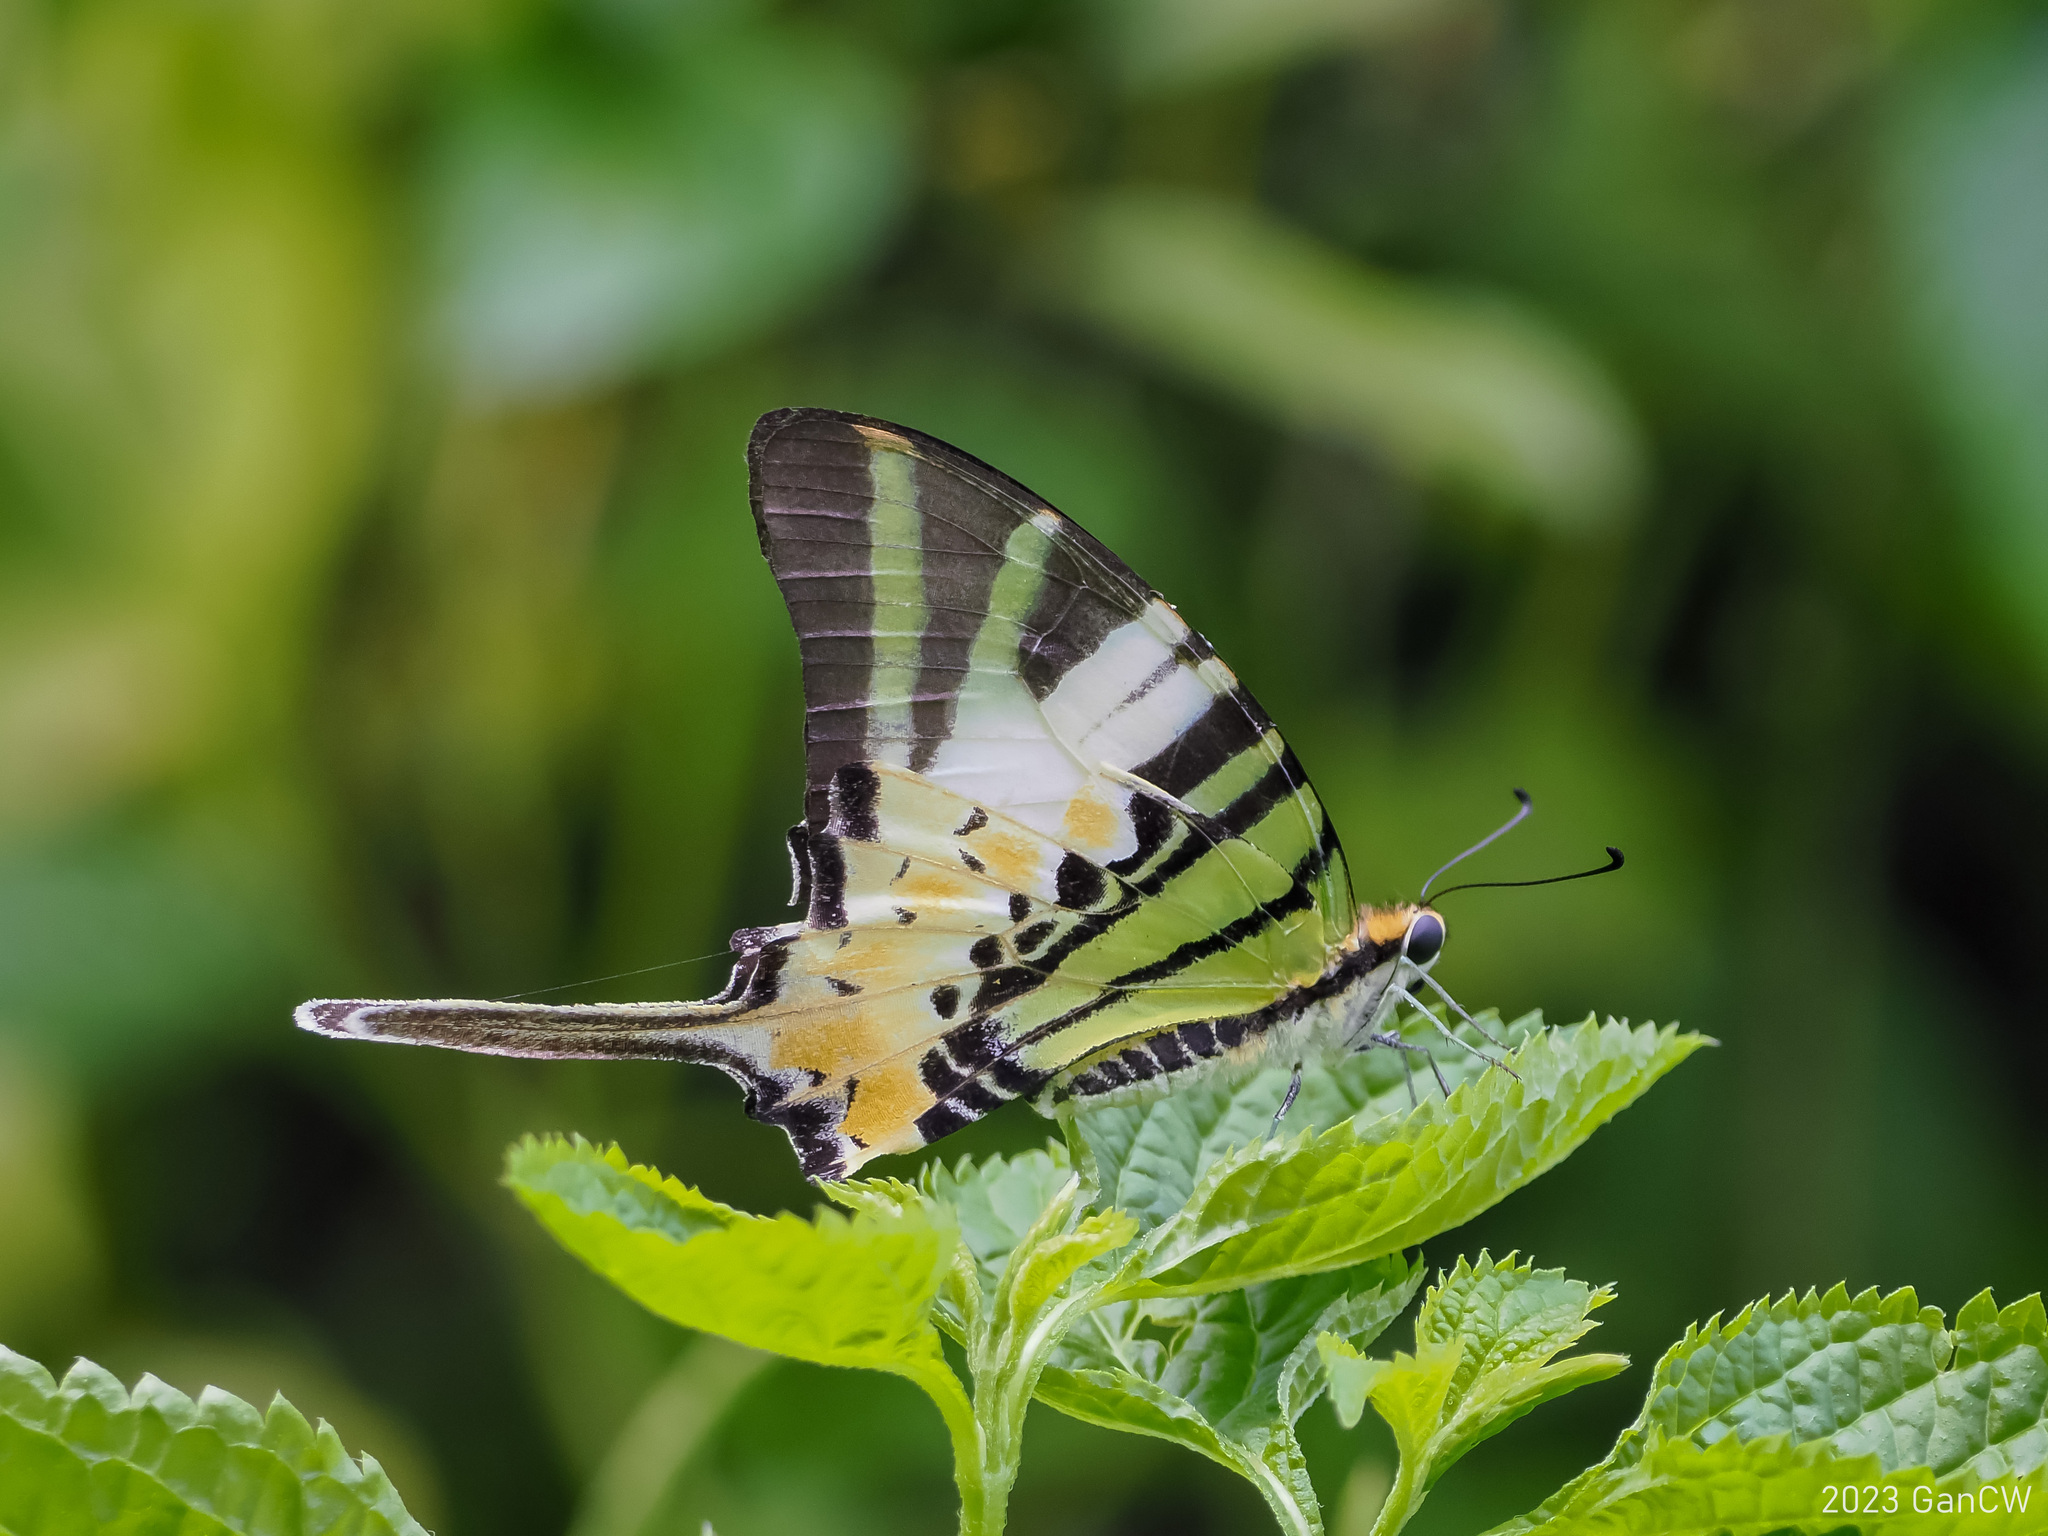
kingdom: Animalia
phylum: Arthropoda
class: Insecta
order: Lepidoptera
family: Papilionidae
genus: Graphium
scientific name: Graphium antiphates
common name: Fivebar swordtail
